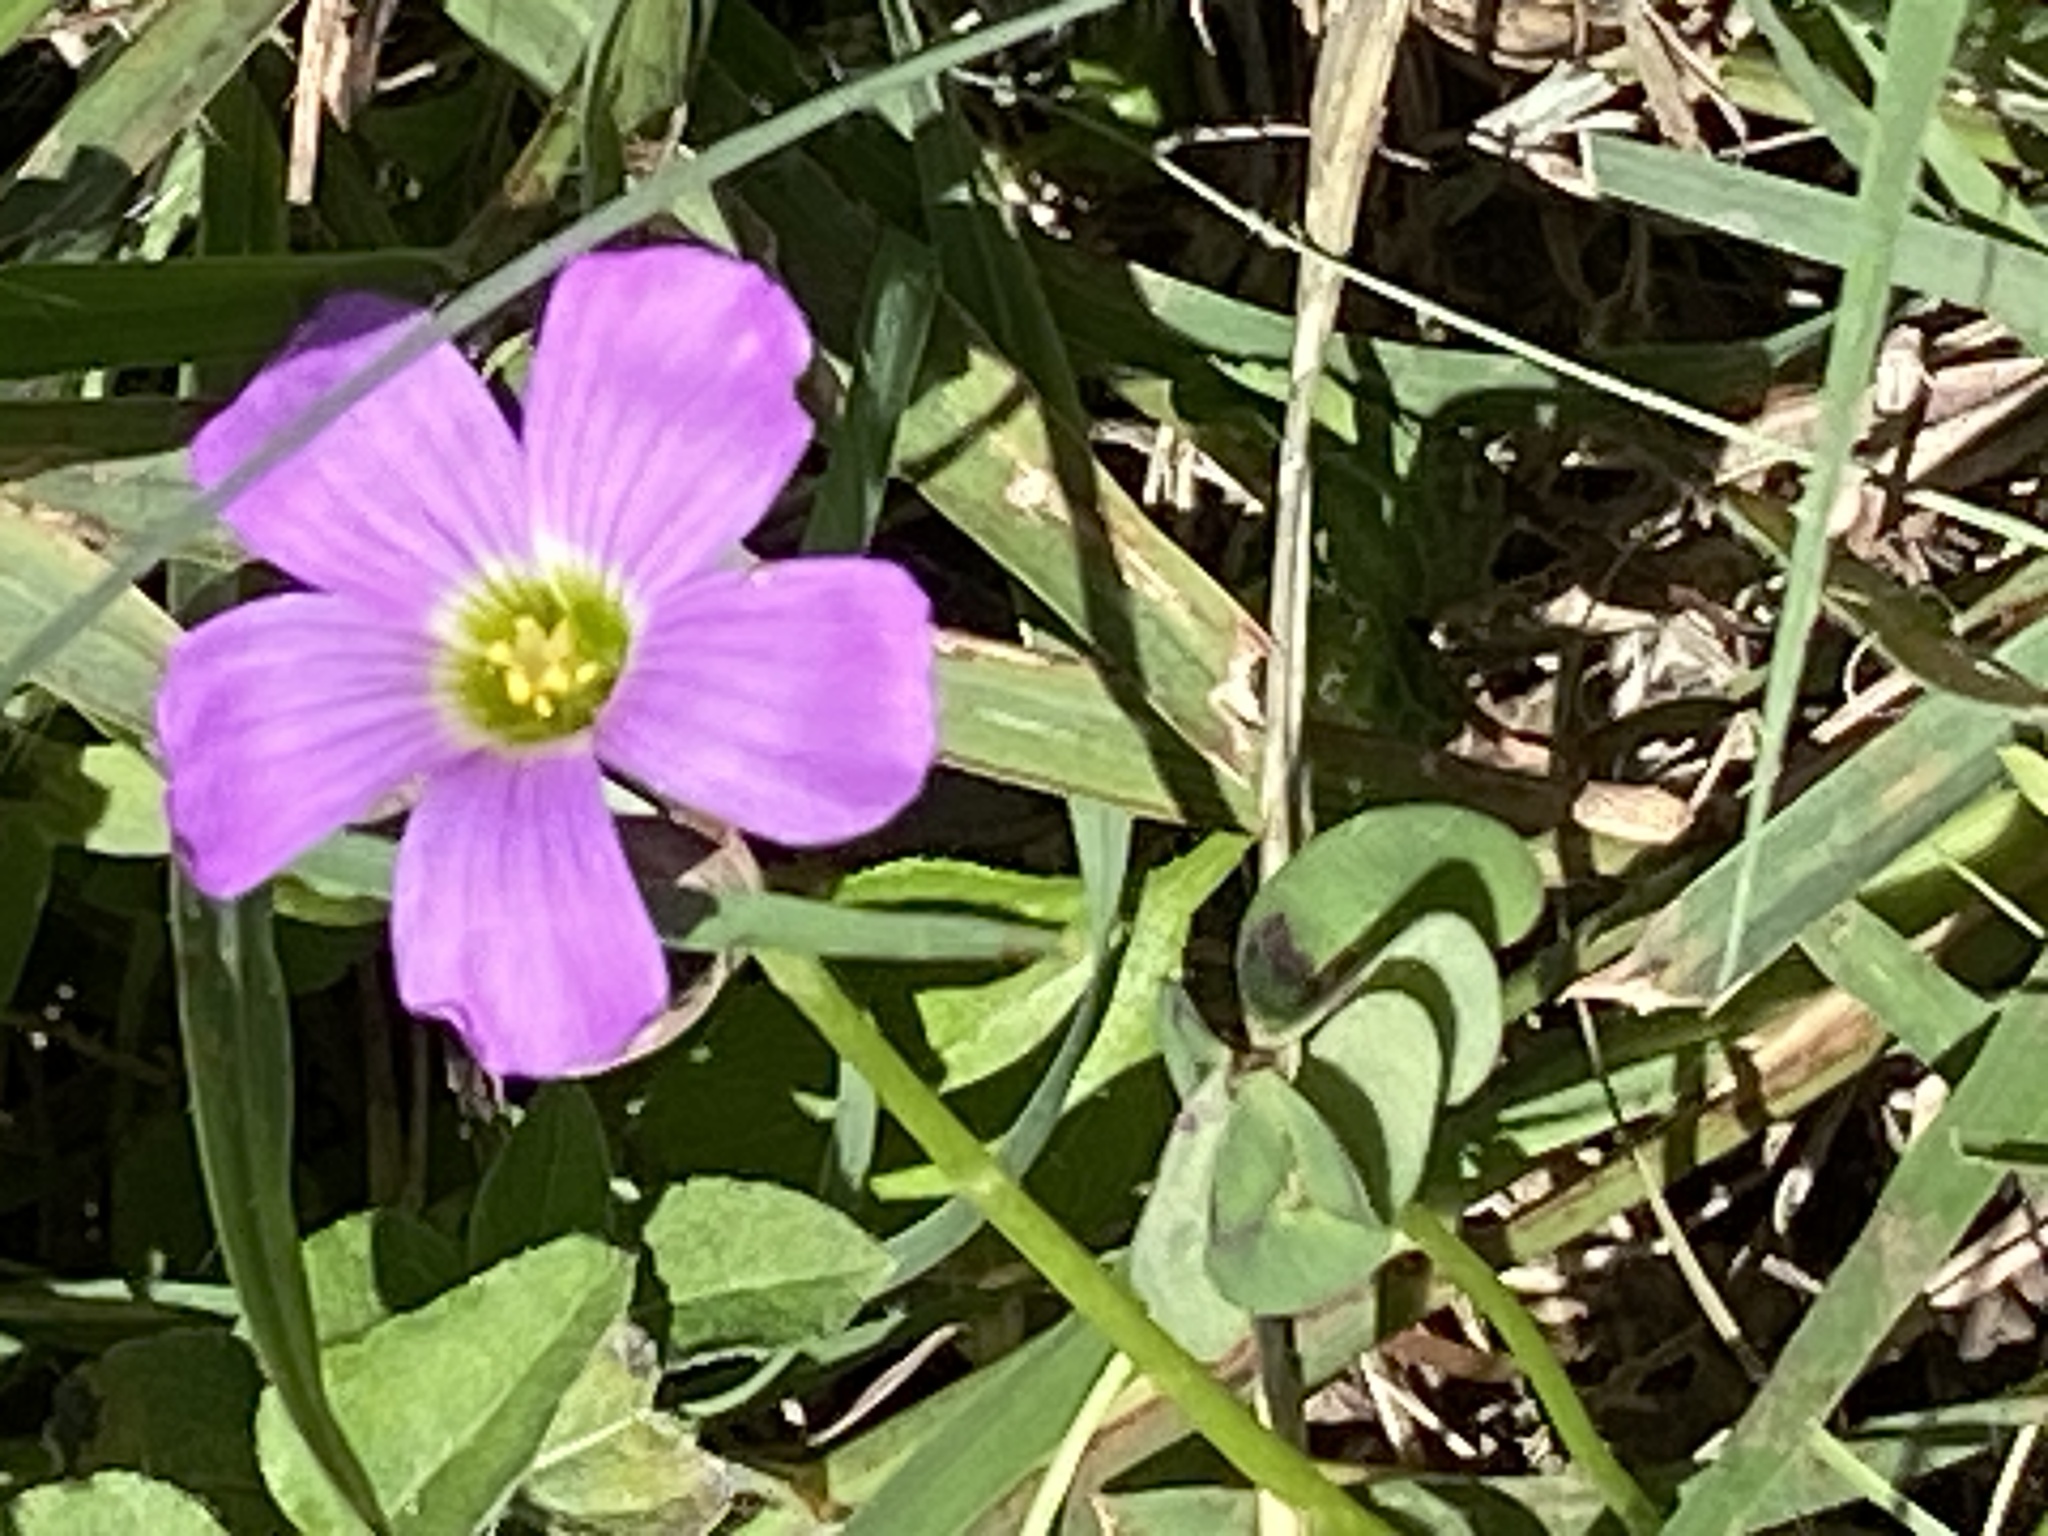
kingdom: Plantae
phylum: Tracheophyta
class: Magnoliopsida
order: Oxalidales
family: Oxalidaceae
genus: Oxalis
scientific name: Oxalis drummondii
